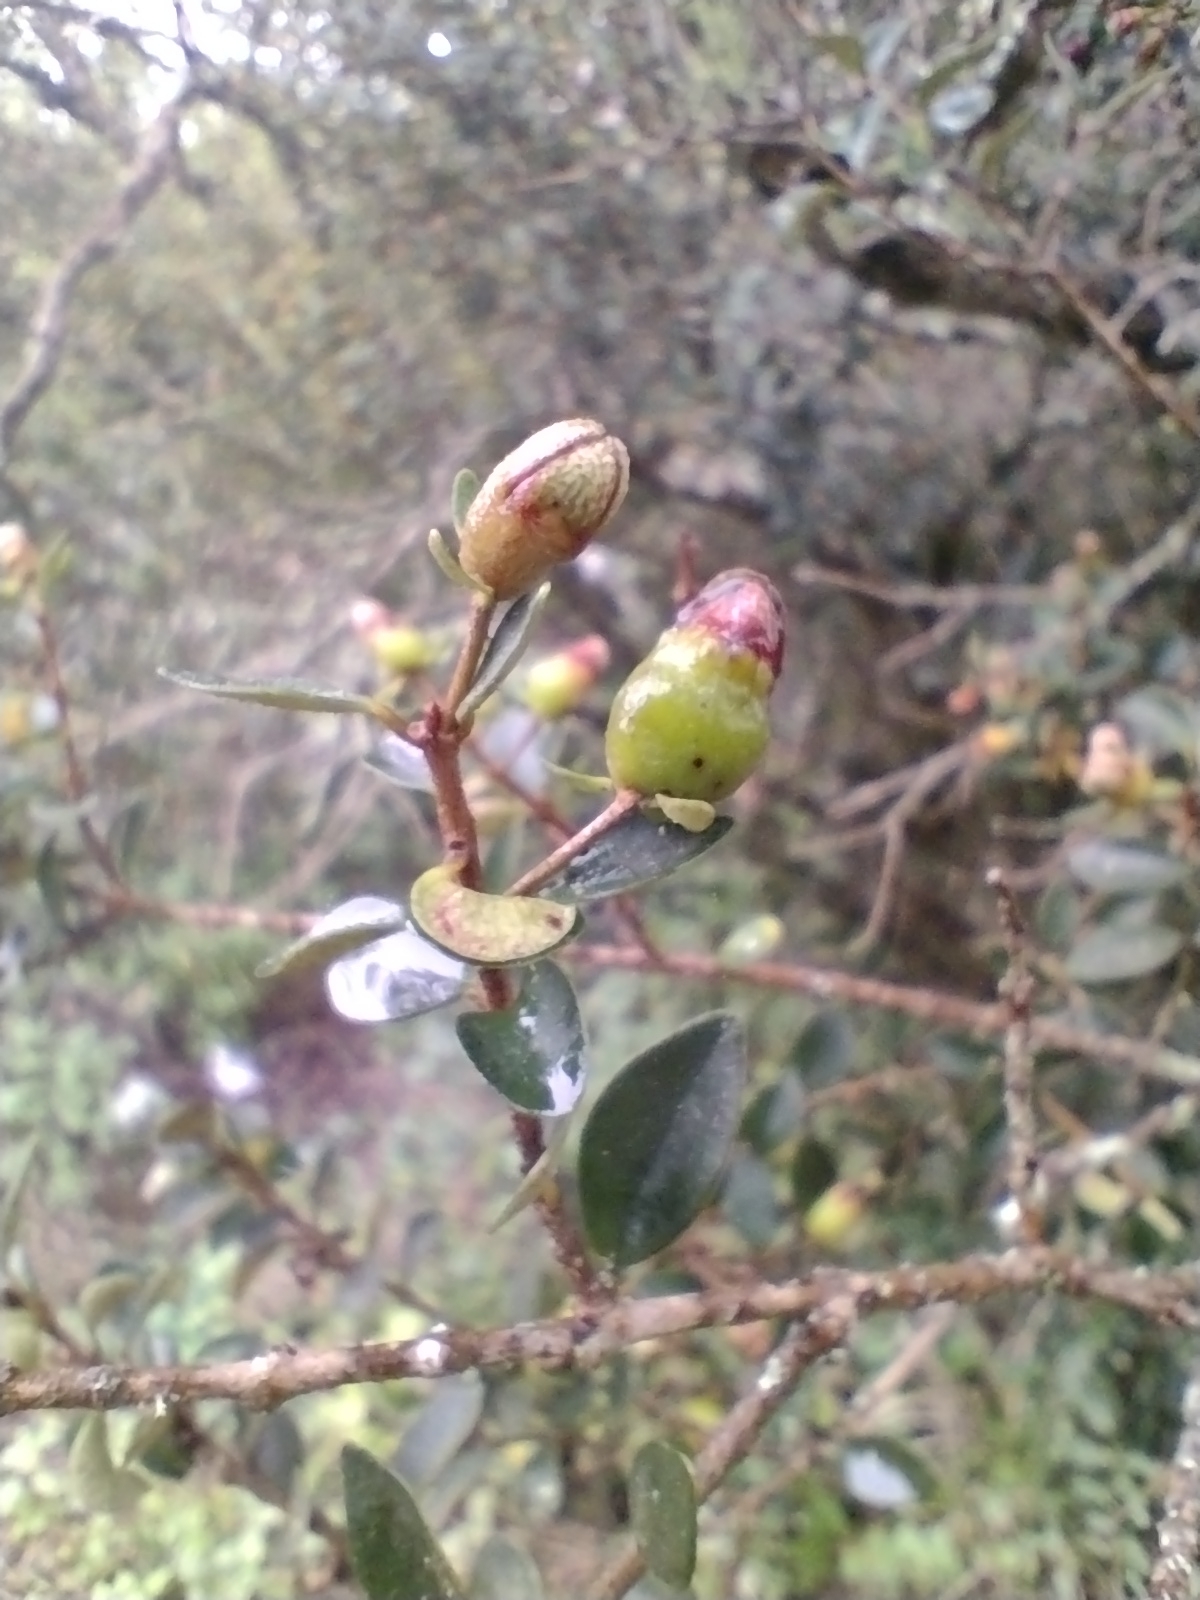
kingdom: Plantae
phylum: Tracheophyta
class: Magnoliopsida
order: Myrtales
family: Myrtaceae
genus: Myrceugenia
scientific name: Myrceugenia obtusa
